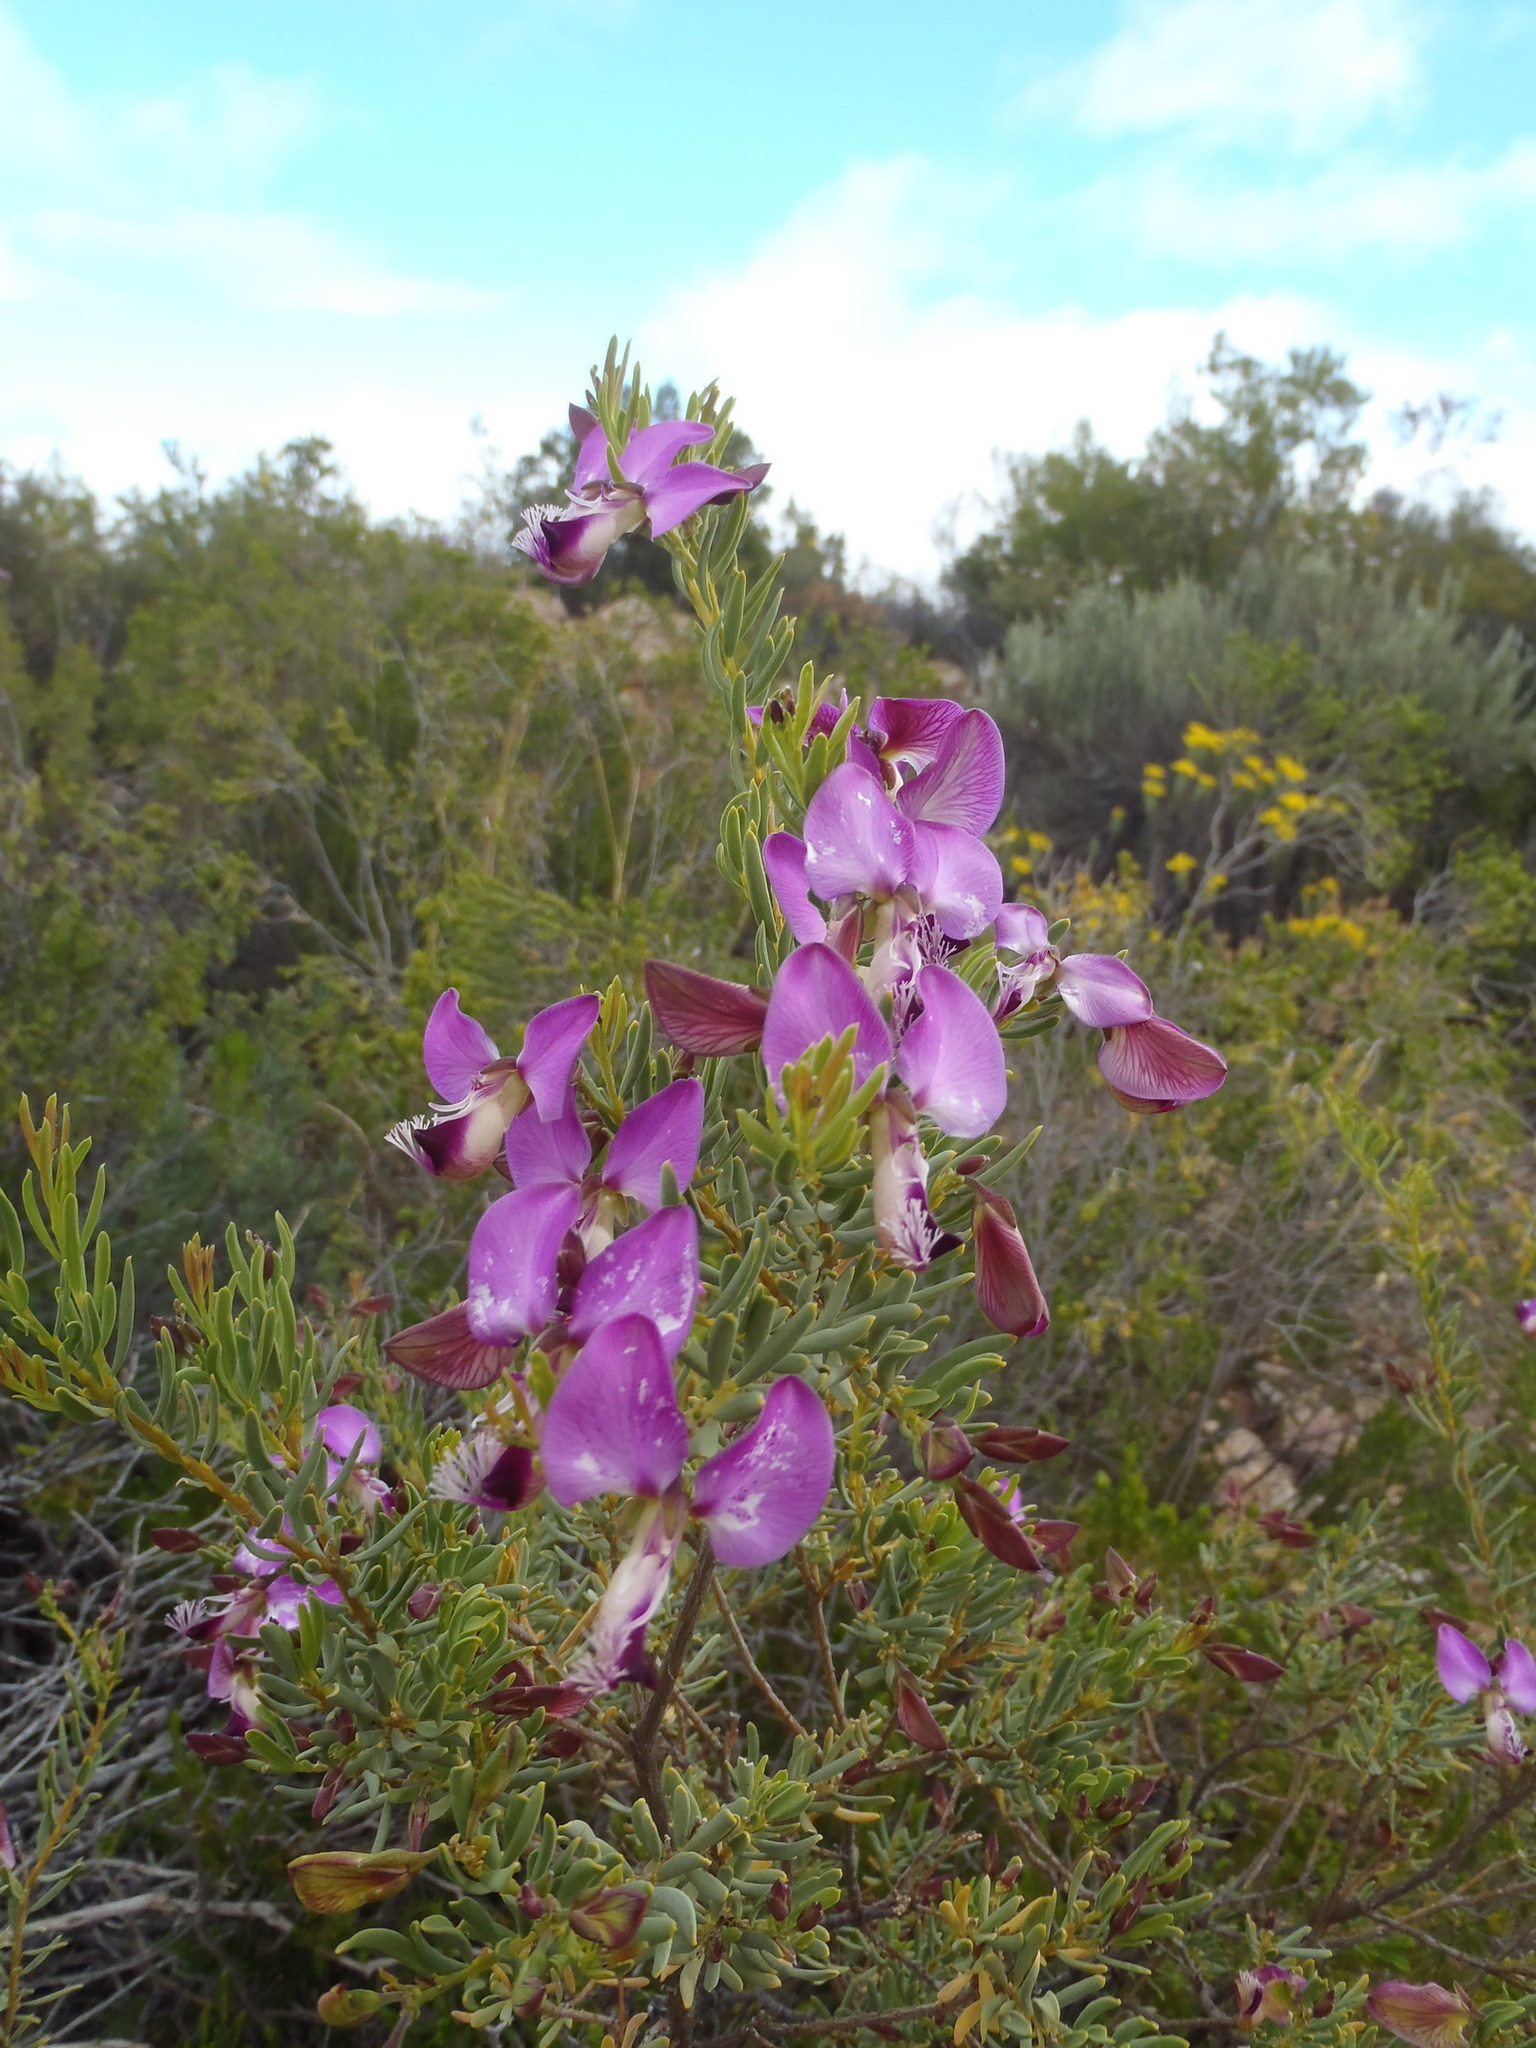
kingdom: Plantae
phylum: Tracheophyta
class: Magnoliopsida
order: Fabales
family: Polygalaceae
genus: Polygala
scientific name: Polygala myrtifolia
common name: Myrtle-leaf milkwort
